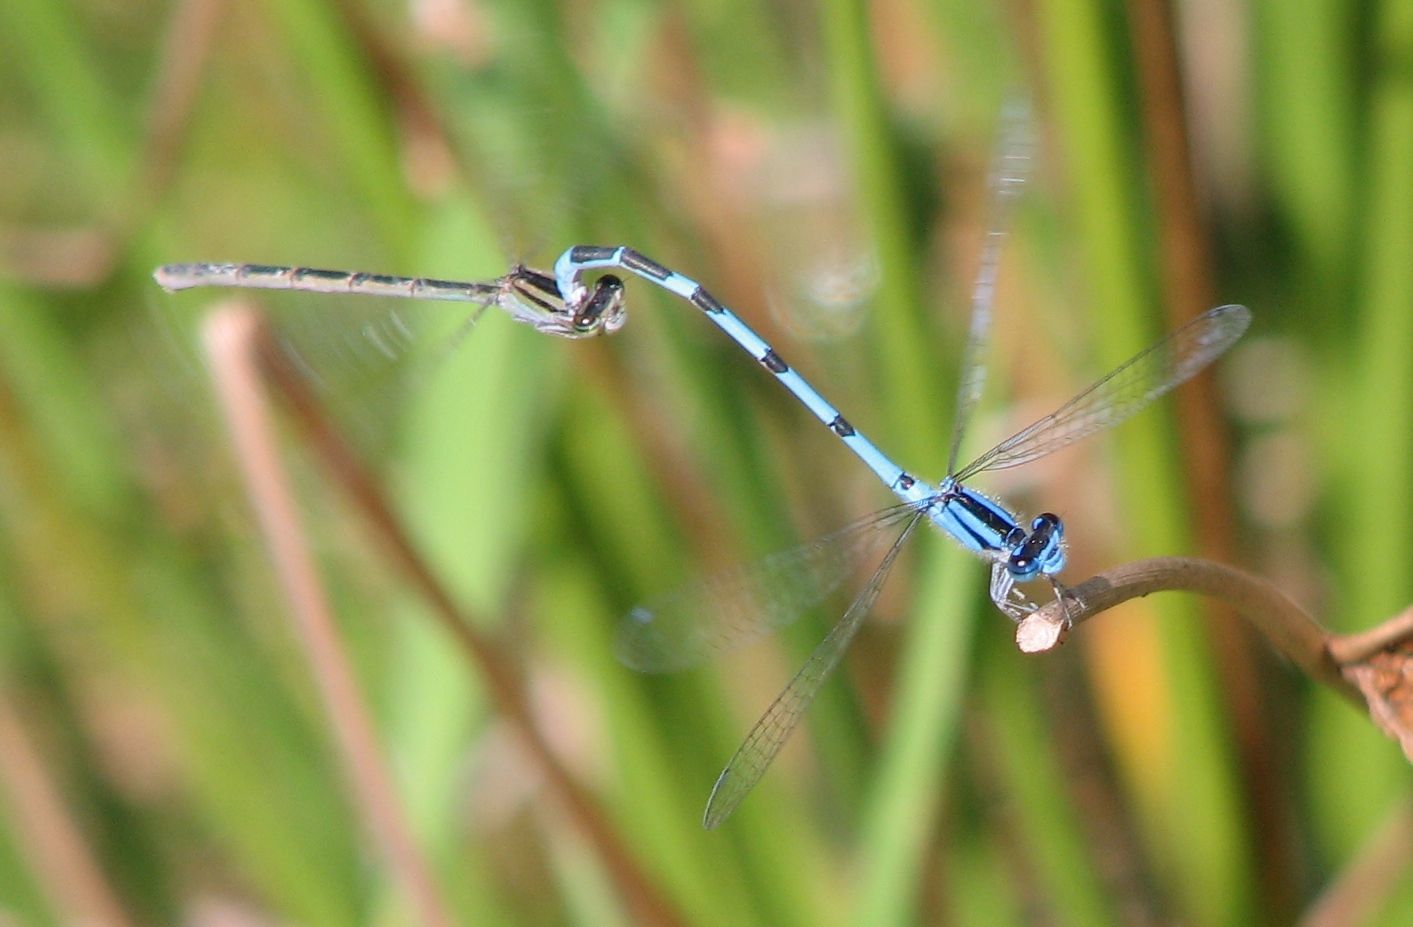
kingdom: Animalia
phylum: Arthropoda
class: Insecta
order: Odonata
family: Coenagrionidae
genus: Enallagma
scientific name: Enallagma
